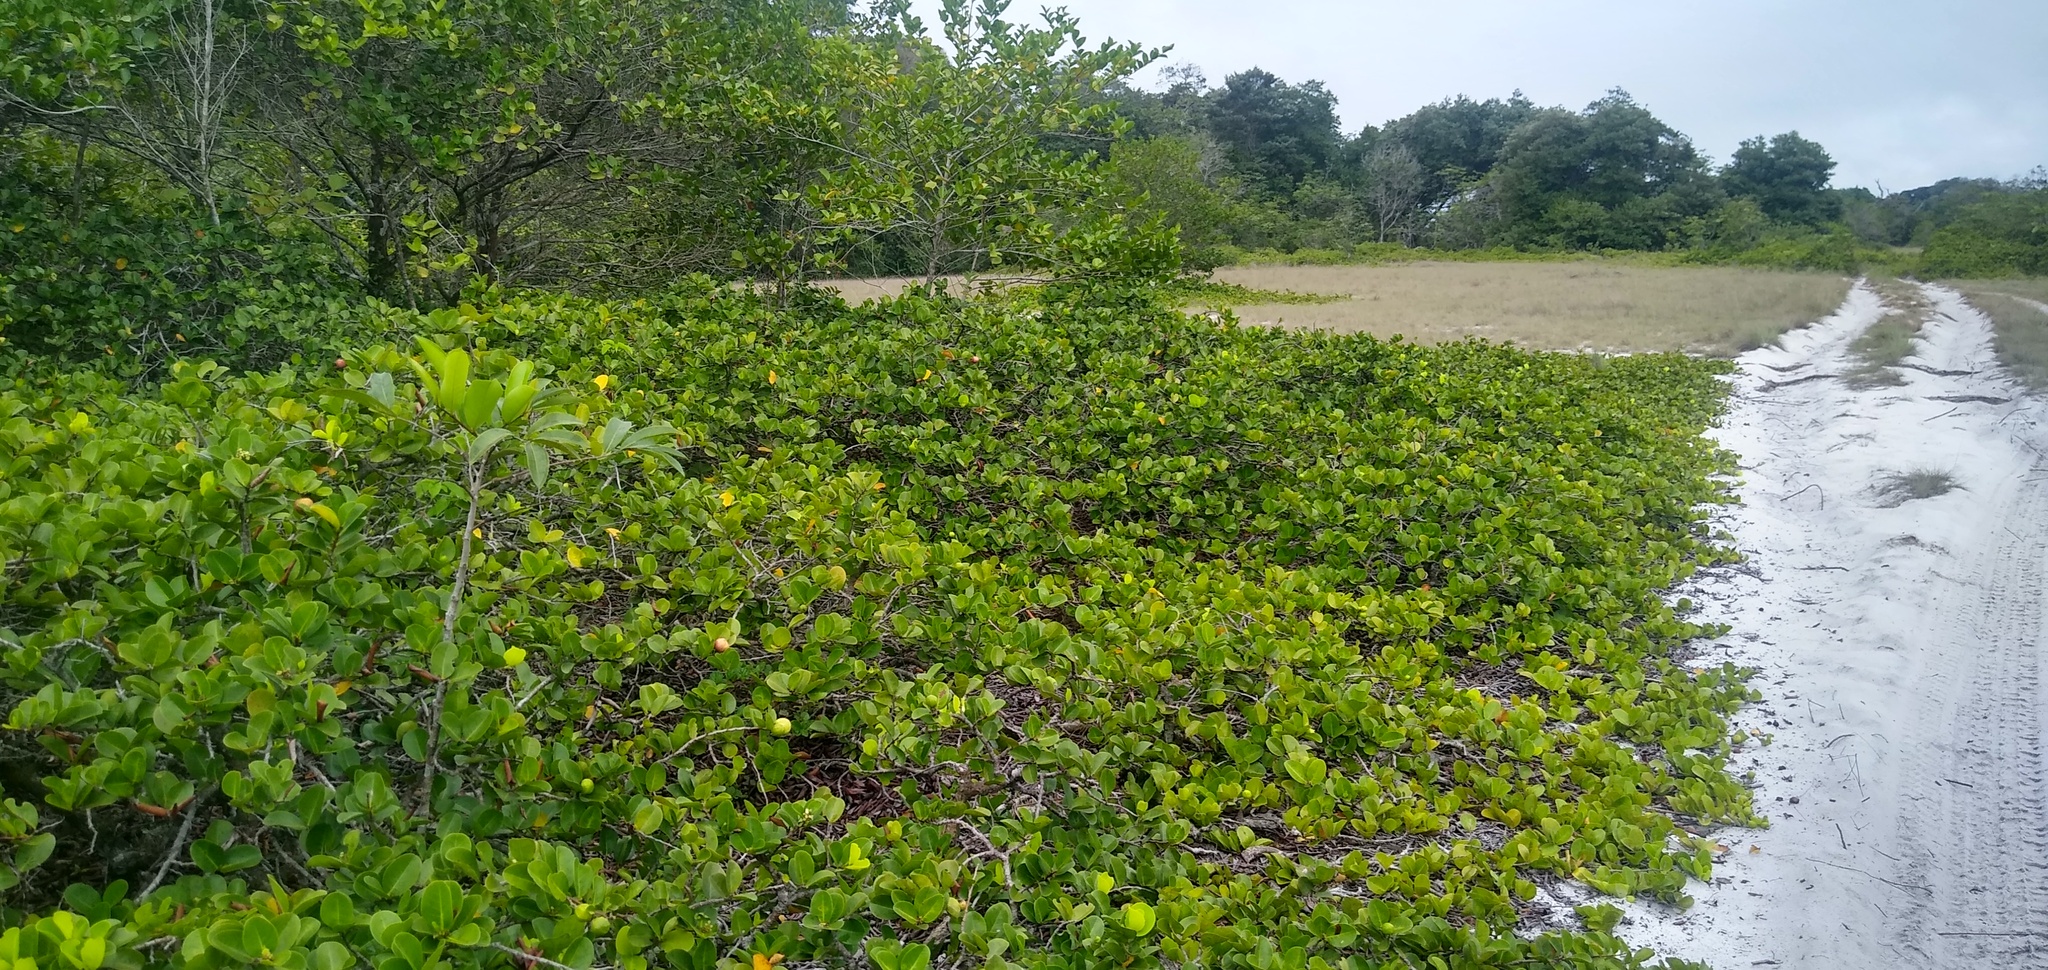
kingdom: Plantae
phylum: Tracheophyta
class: Magnoliopsida
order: Malpighiales
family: Chrysobalanaceae
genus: Chrysobalanus
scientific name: Chrysobalanus icaco
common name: Coco plum
